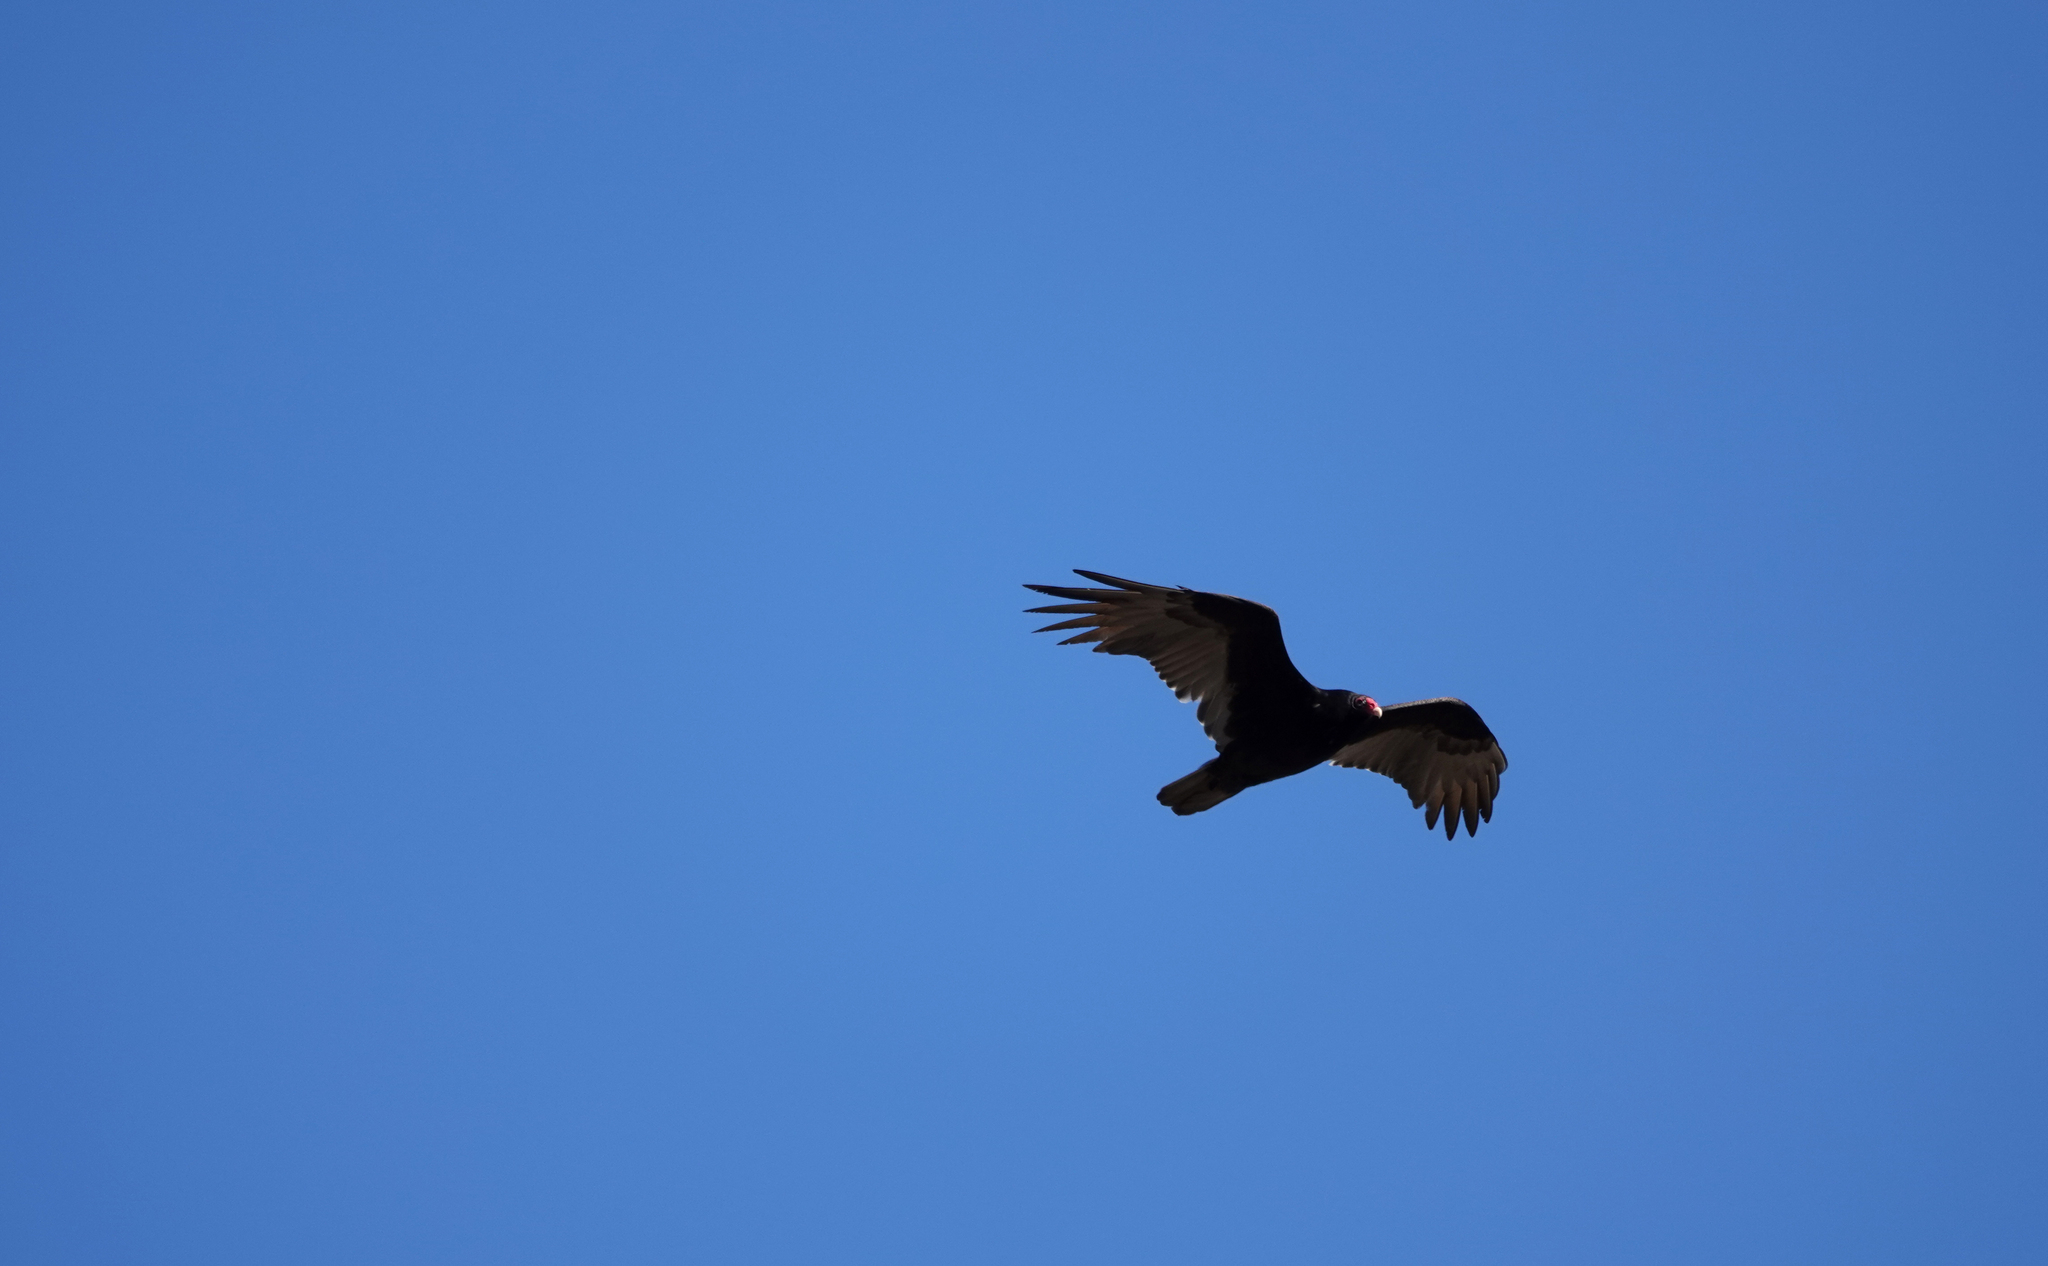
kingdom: Animalia
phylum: Chordata
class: Aves
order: Accipitriformes
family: Cathartidae
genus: Cathartes
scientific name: Cathartes aura
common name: Turkey vulture
